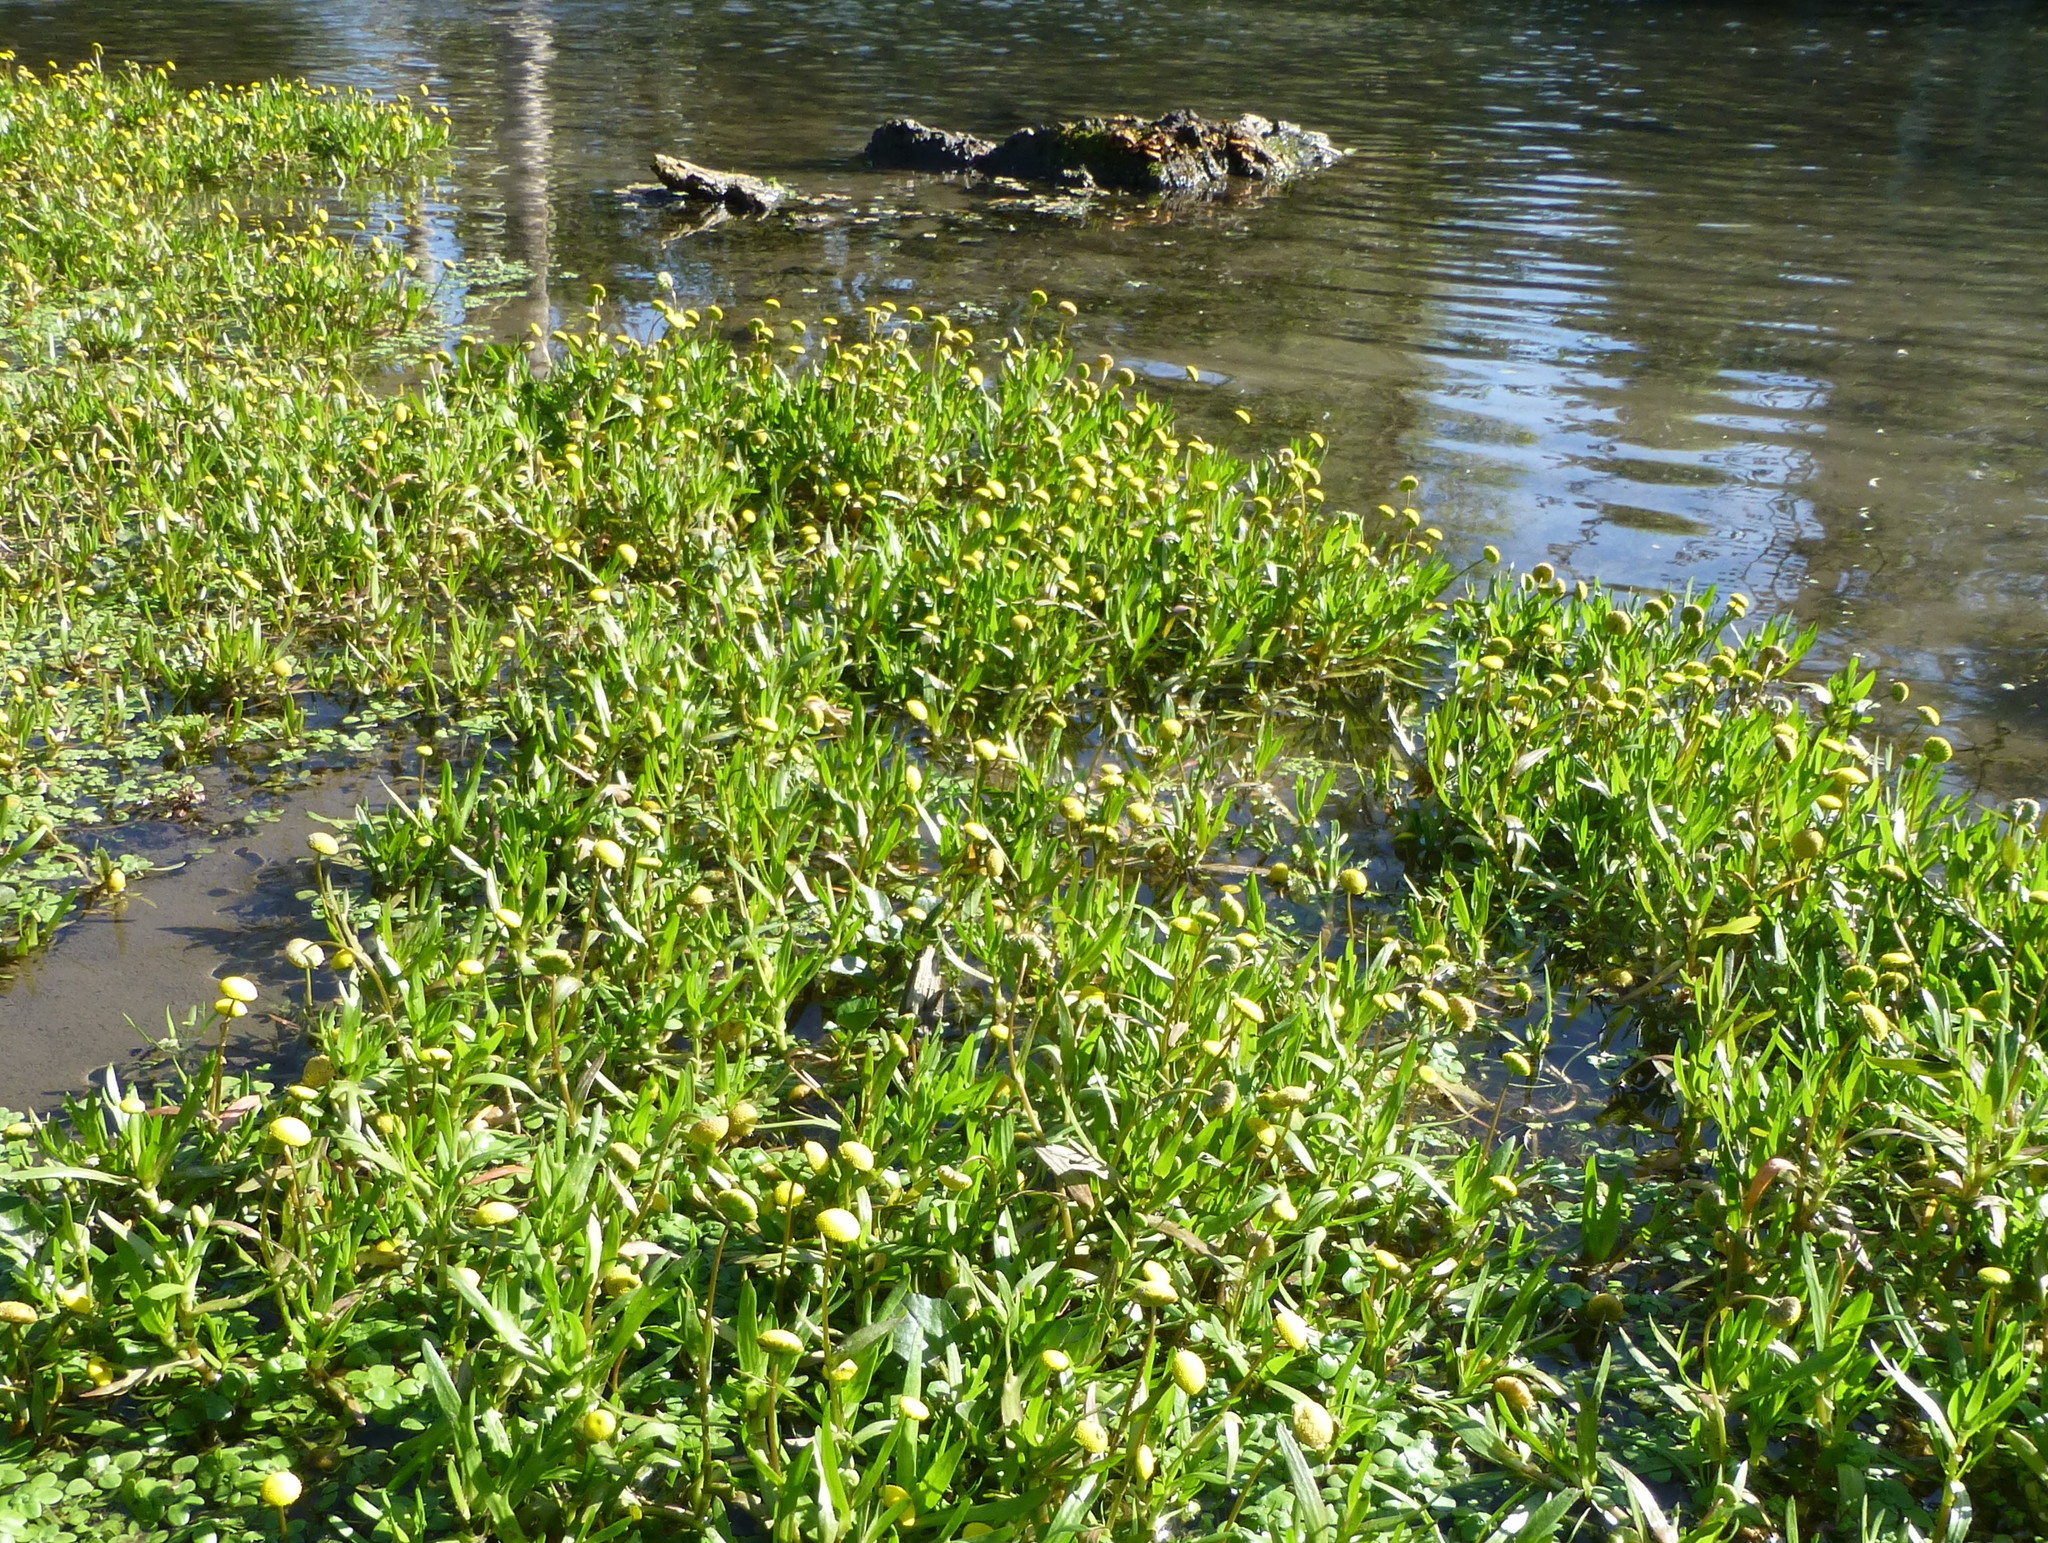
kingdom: Plantae
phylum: Tracheophyta
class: Magnoliopsida
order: Asterales
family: Asteraceae
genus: Cotula
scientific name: Cotula coronopifolia
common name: Buttonweed
